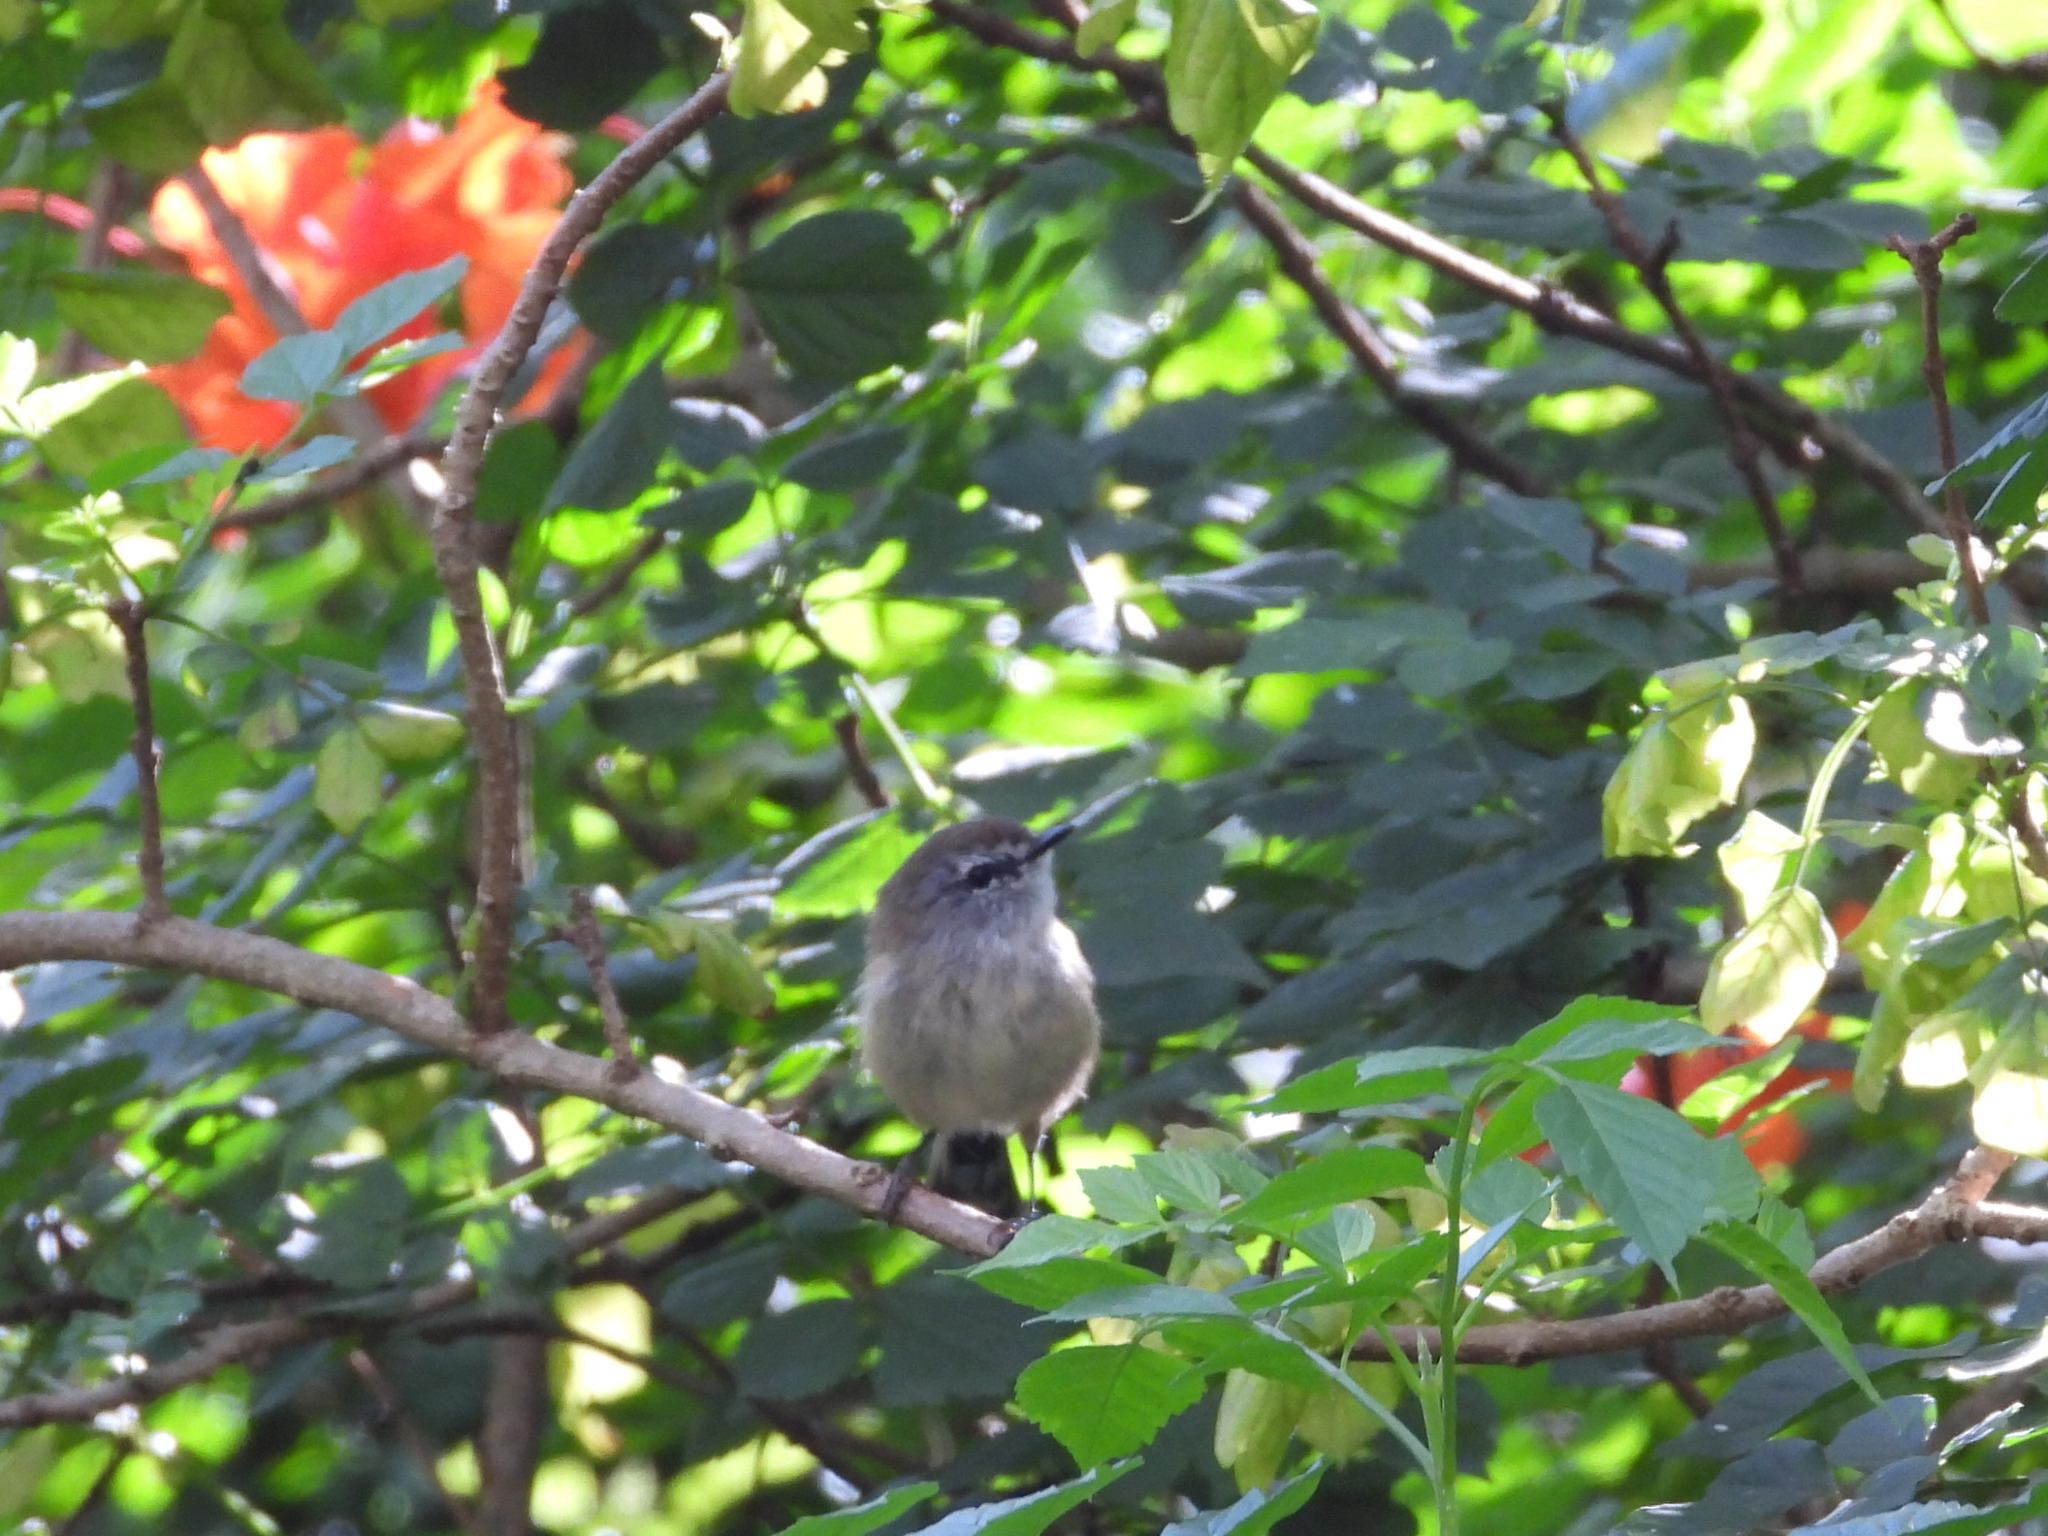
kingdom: Animalia
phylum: Chordata
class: Aves
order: Passeriformes
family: Acanthizidae
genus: Gerygone
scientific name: Gerygone mouki
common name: Brown gerygone
